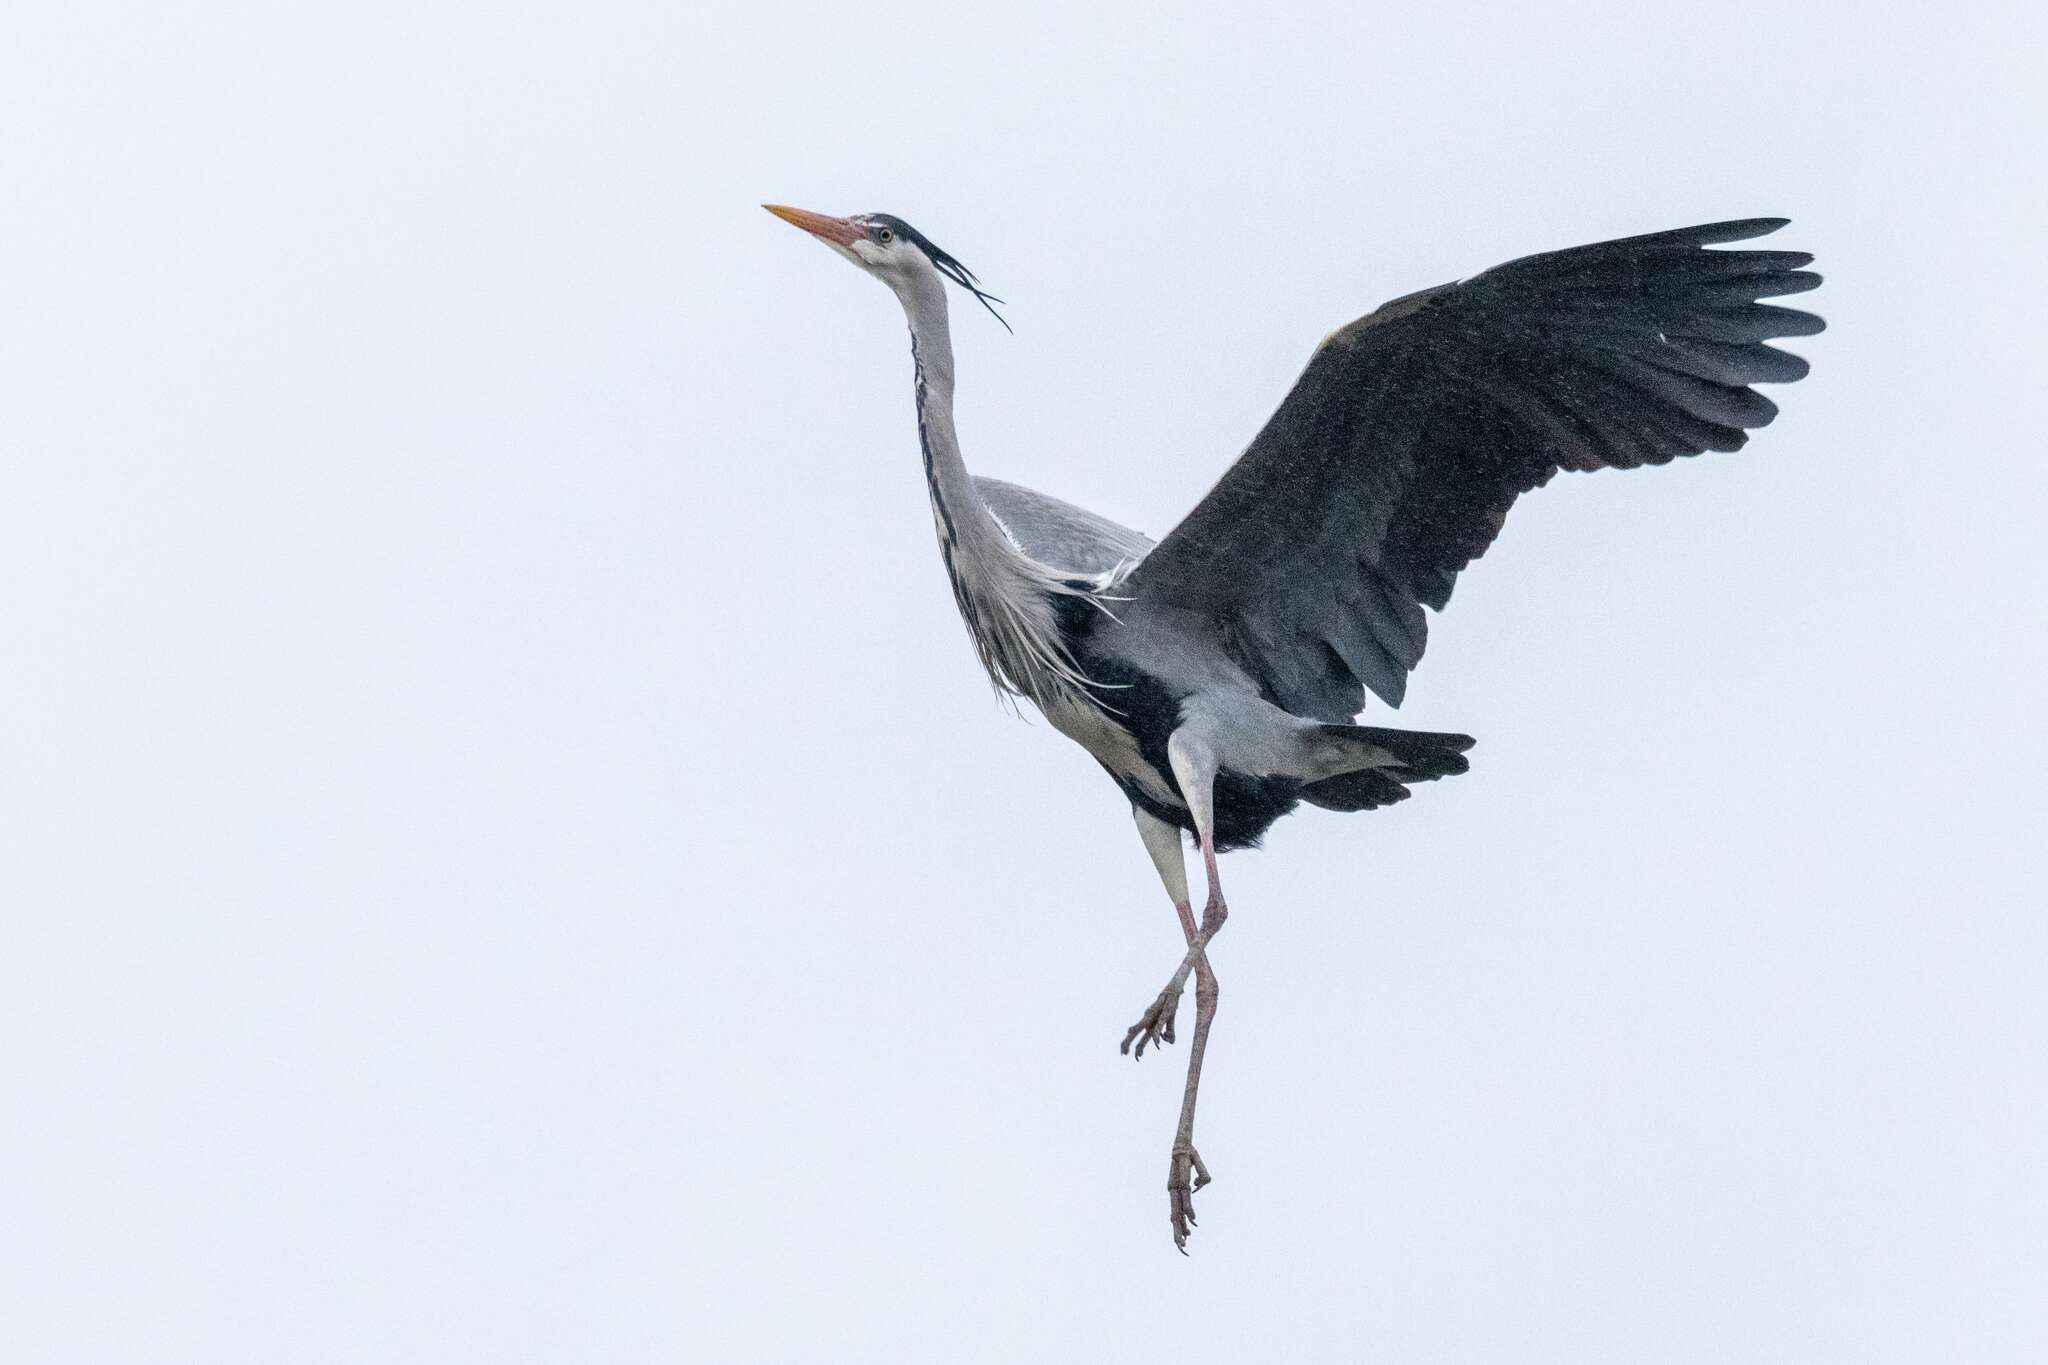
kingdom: Animalia
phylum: Chordata
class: Aves
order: Pelecaniformes
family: Ardeidae
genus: Ardea
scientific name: Ardea cinerea
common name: Grey heron
